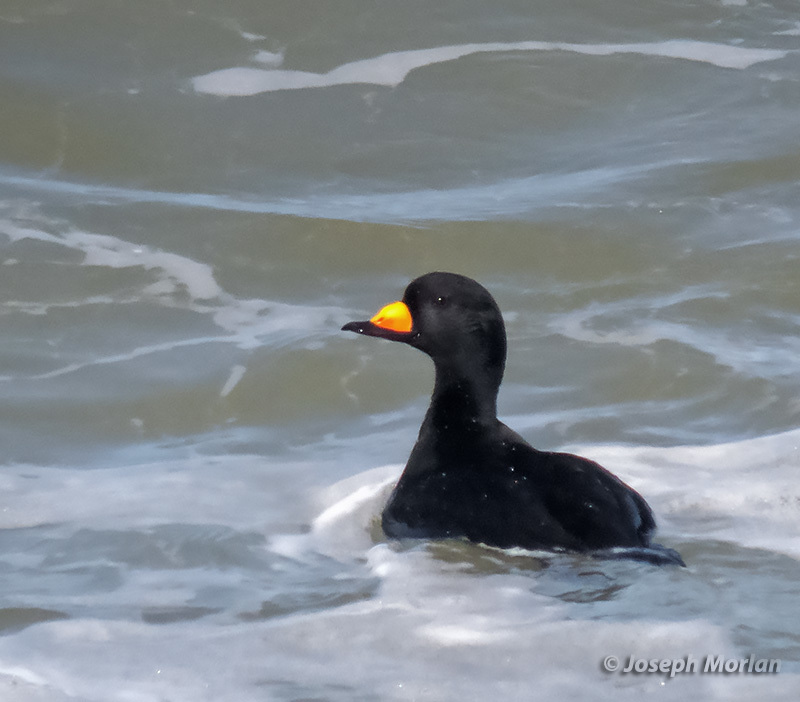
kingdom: Animalia
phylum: Chordata
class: Aves
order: Anseriformes
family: Anatidae
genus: Melanitta
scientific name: Melanitta americana
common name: Black scoter
